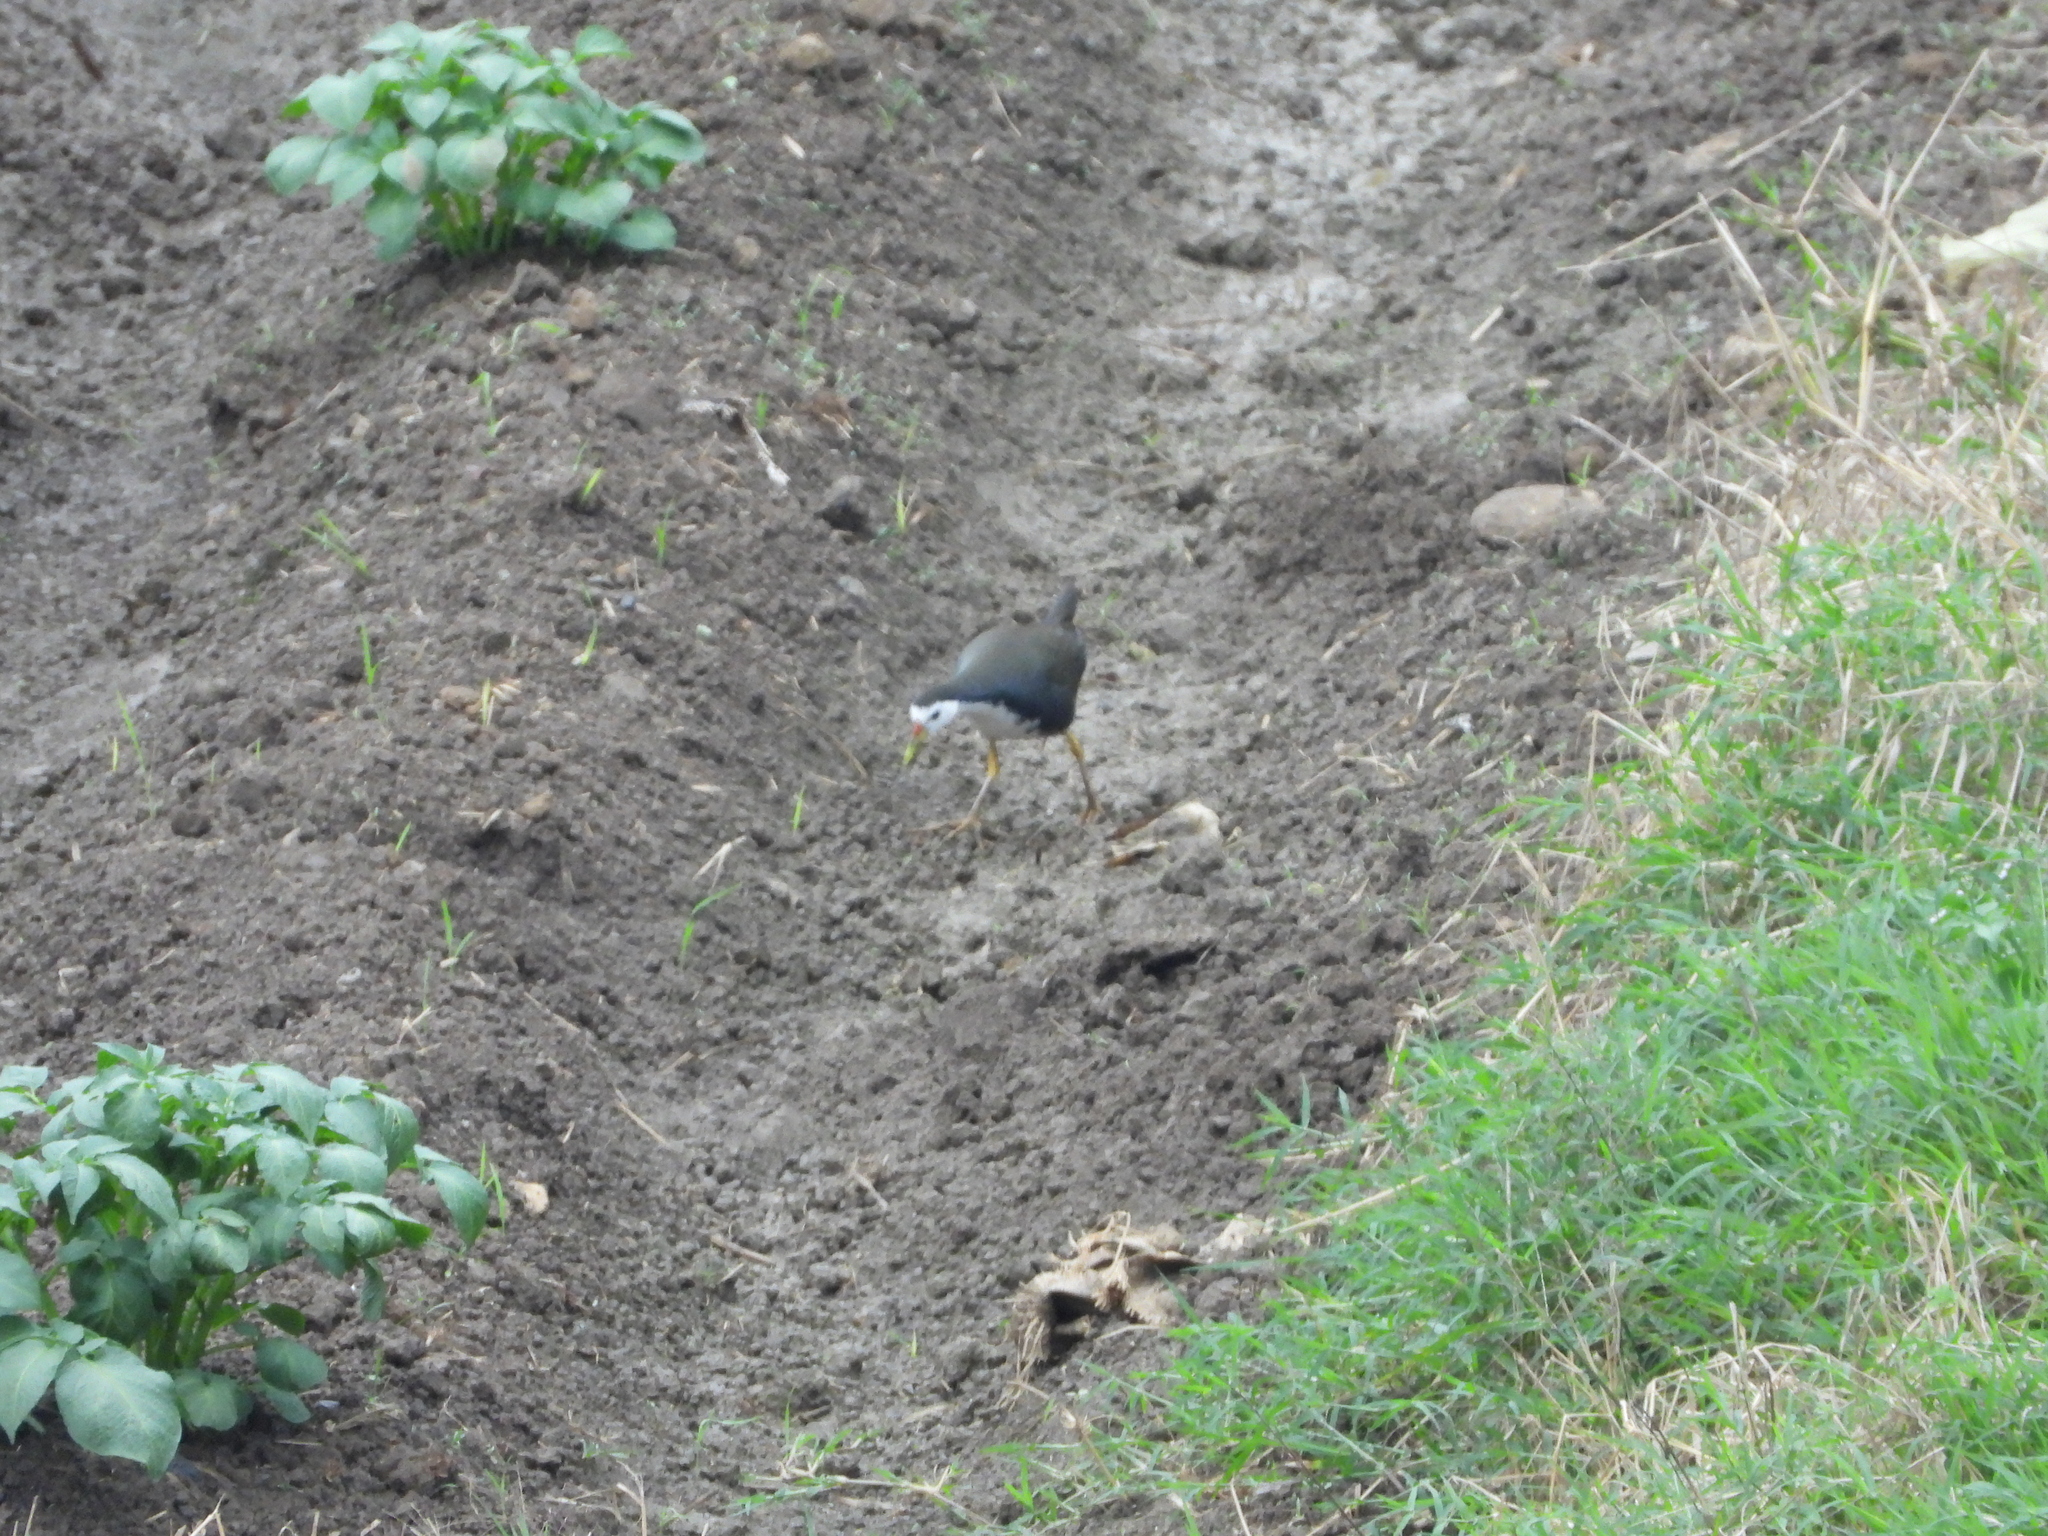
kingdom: Animalia
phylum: Chordata
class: Aves
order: Gruiformes
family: Rallidae
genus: Amaurornis
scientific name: Amaurornis phoenicurus
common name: White-breasted waterhen
